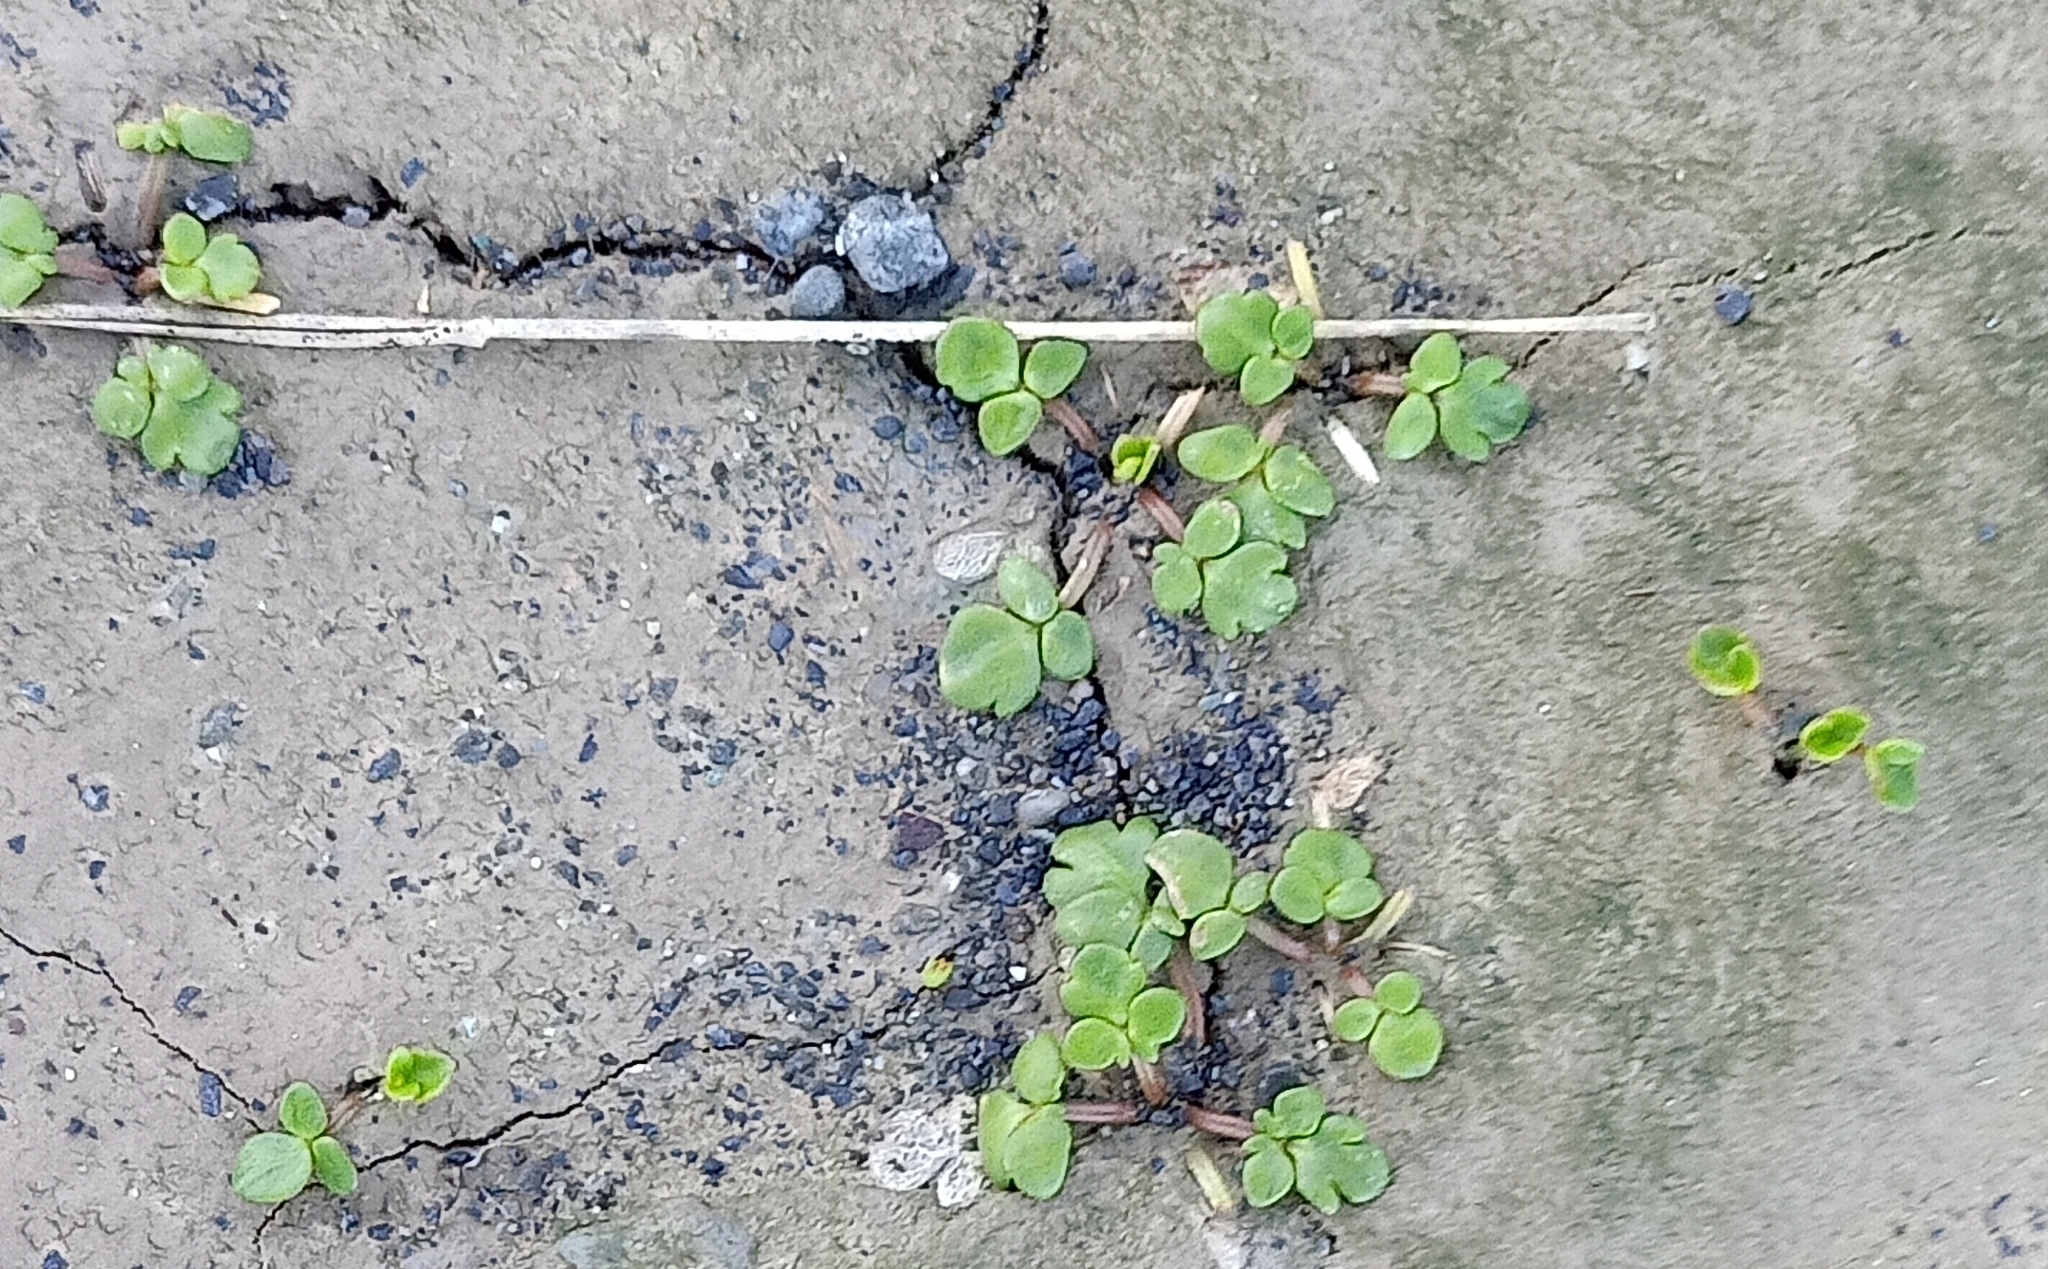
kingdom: Plantae
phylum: Tracheophyta
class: Magnoliopsida
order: Ranunculales
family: Ranunculaceae
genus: Ranunculus
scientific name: Ranunculus acaulis
